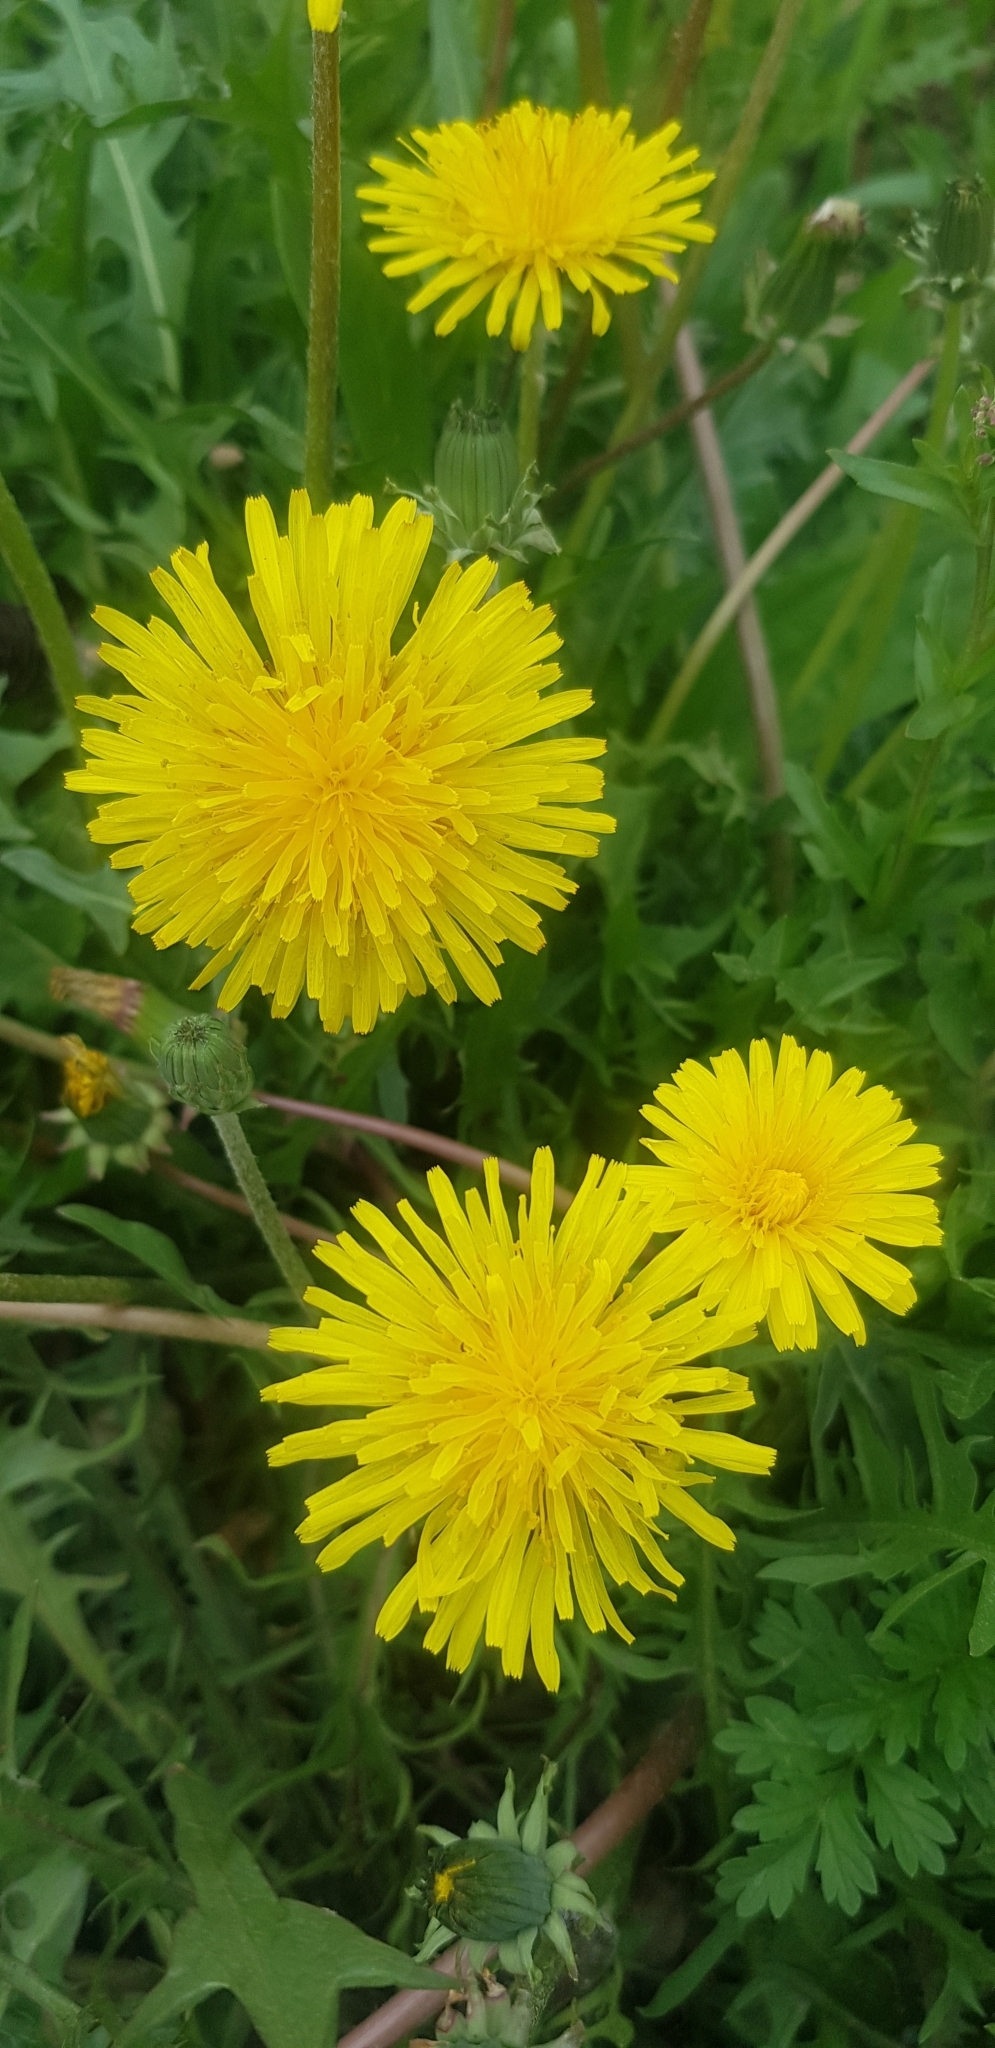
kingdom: Plantae
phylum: Tracheophyta
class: Magnoliopsida
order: Asterales
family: Asteraceae
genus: Taraxacum
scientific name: Taraxacum officinale
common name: Common dandelion
